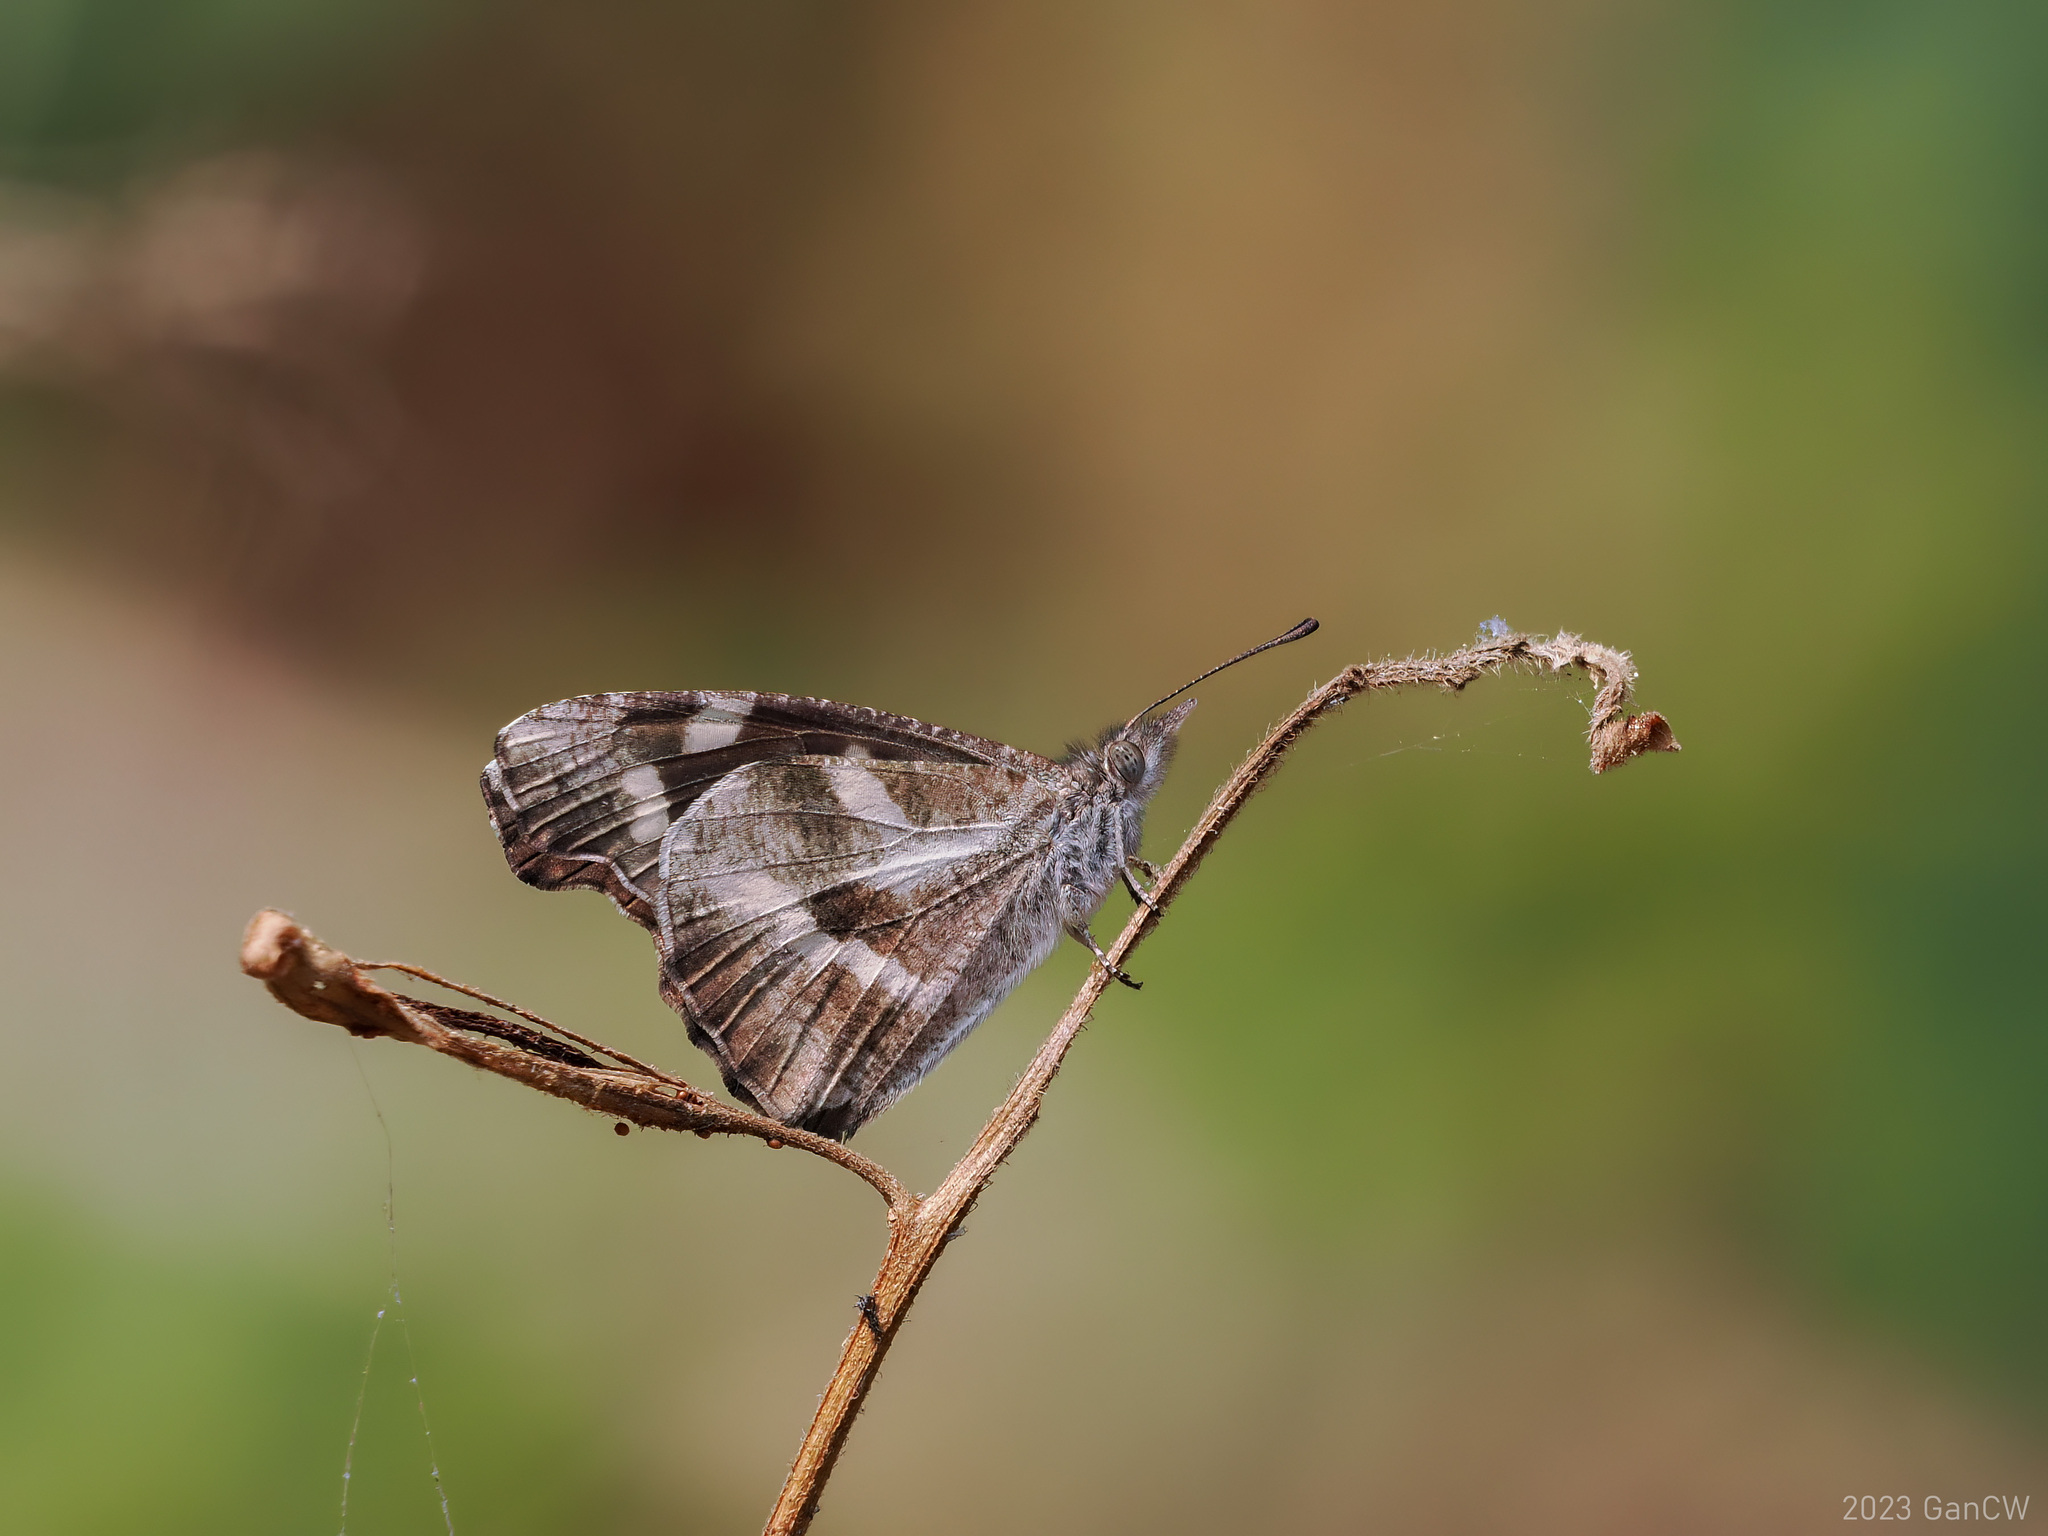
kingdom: Animalia
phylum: Arthropoda
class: Insecta
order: Lepidoptera
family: Nymphalidae
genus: Libythea
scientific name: Libythea narina
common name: Whitespotted beak
